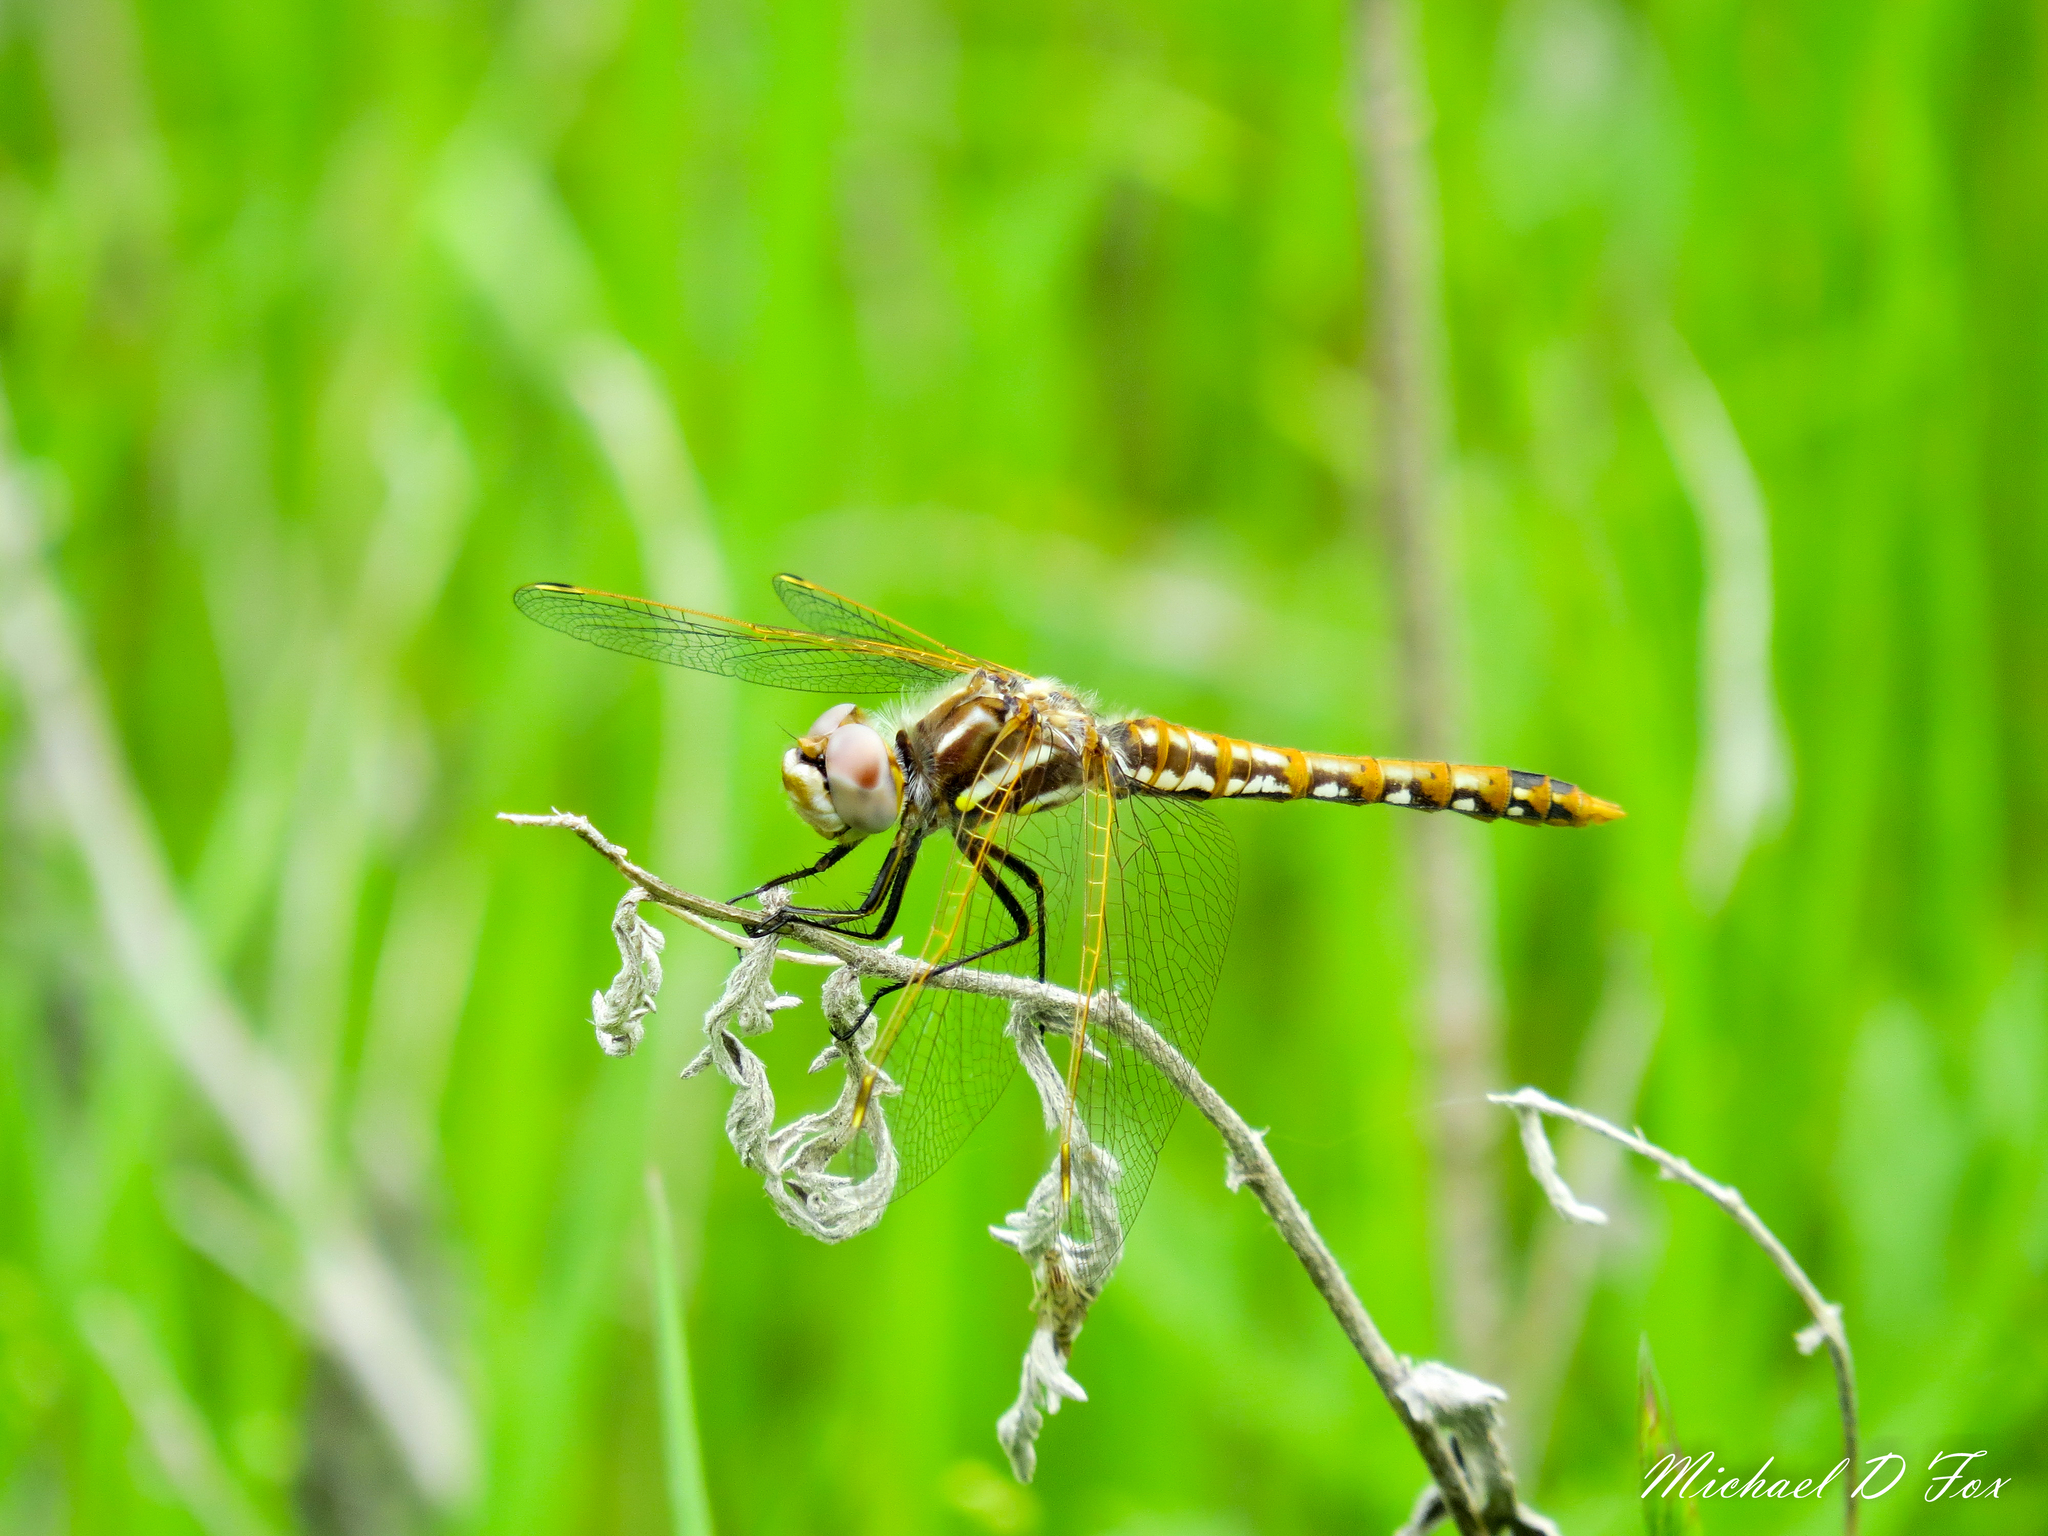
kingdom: Animalia
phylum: Arthropoda
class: Insecta
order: Odonata
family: Libellulidae
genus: Sympetrum
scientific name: Sympetrum corruptum
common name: Variegated meadowhawk
